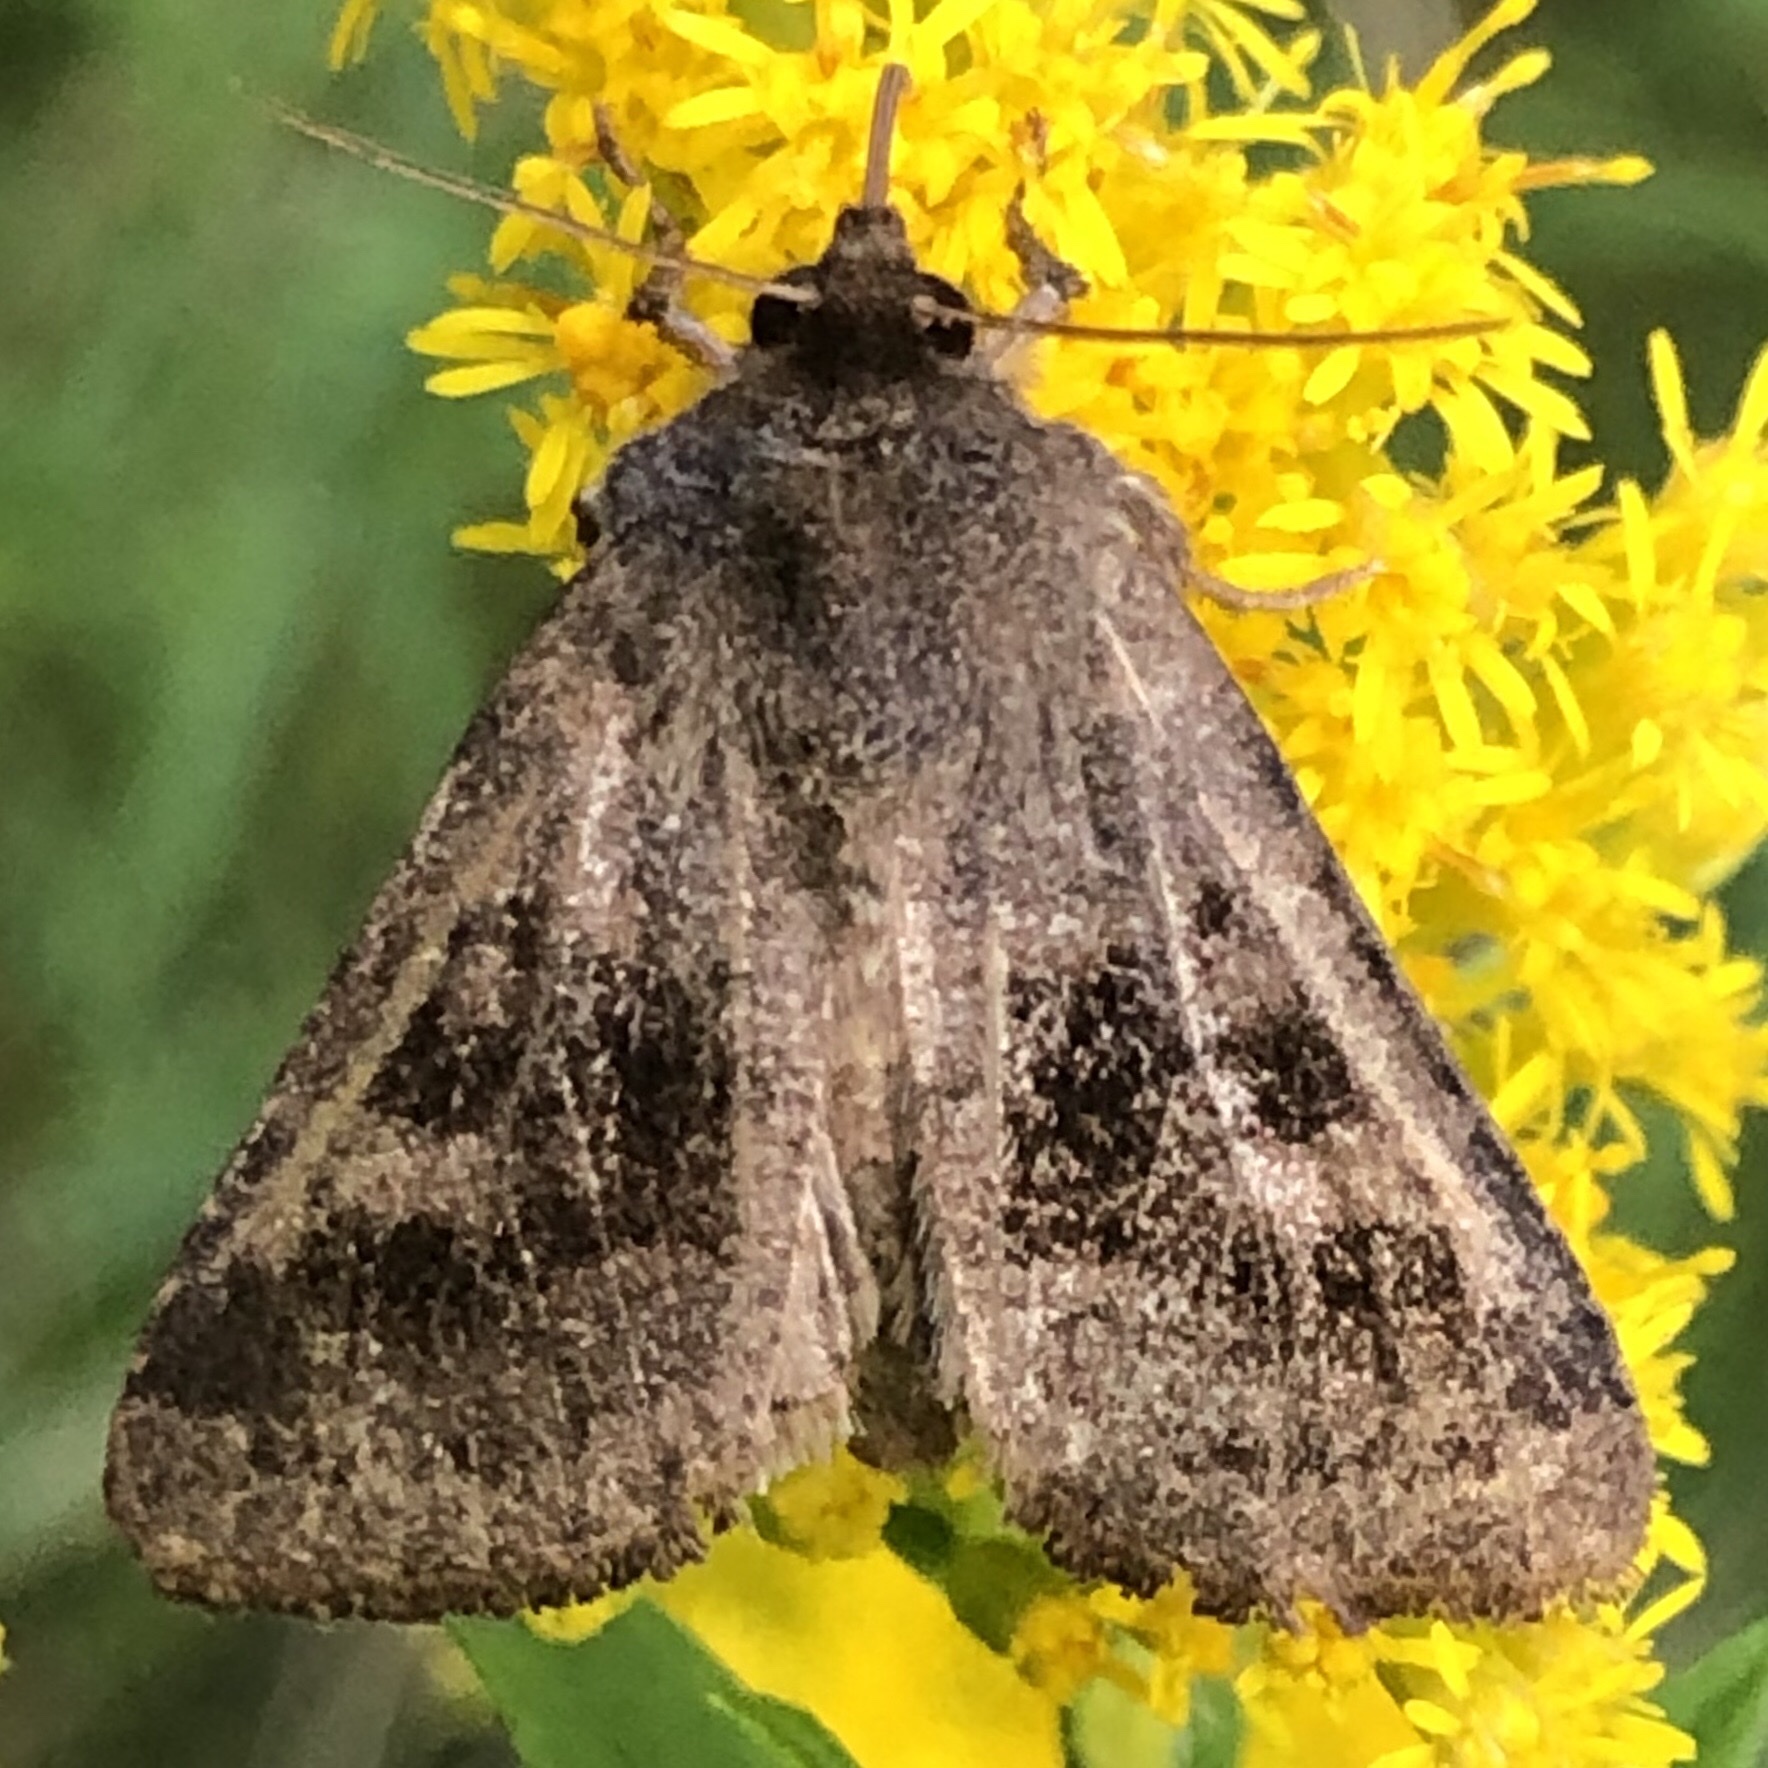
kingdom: Animalia
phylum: Arthropoda
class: Insecta
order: Lepidoptera
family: Noctuidae
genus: Nephelodes
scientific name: Nephelodes minians
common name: Bronzed cutworm
